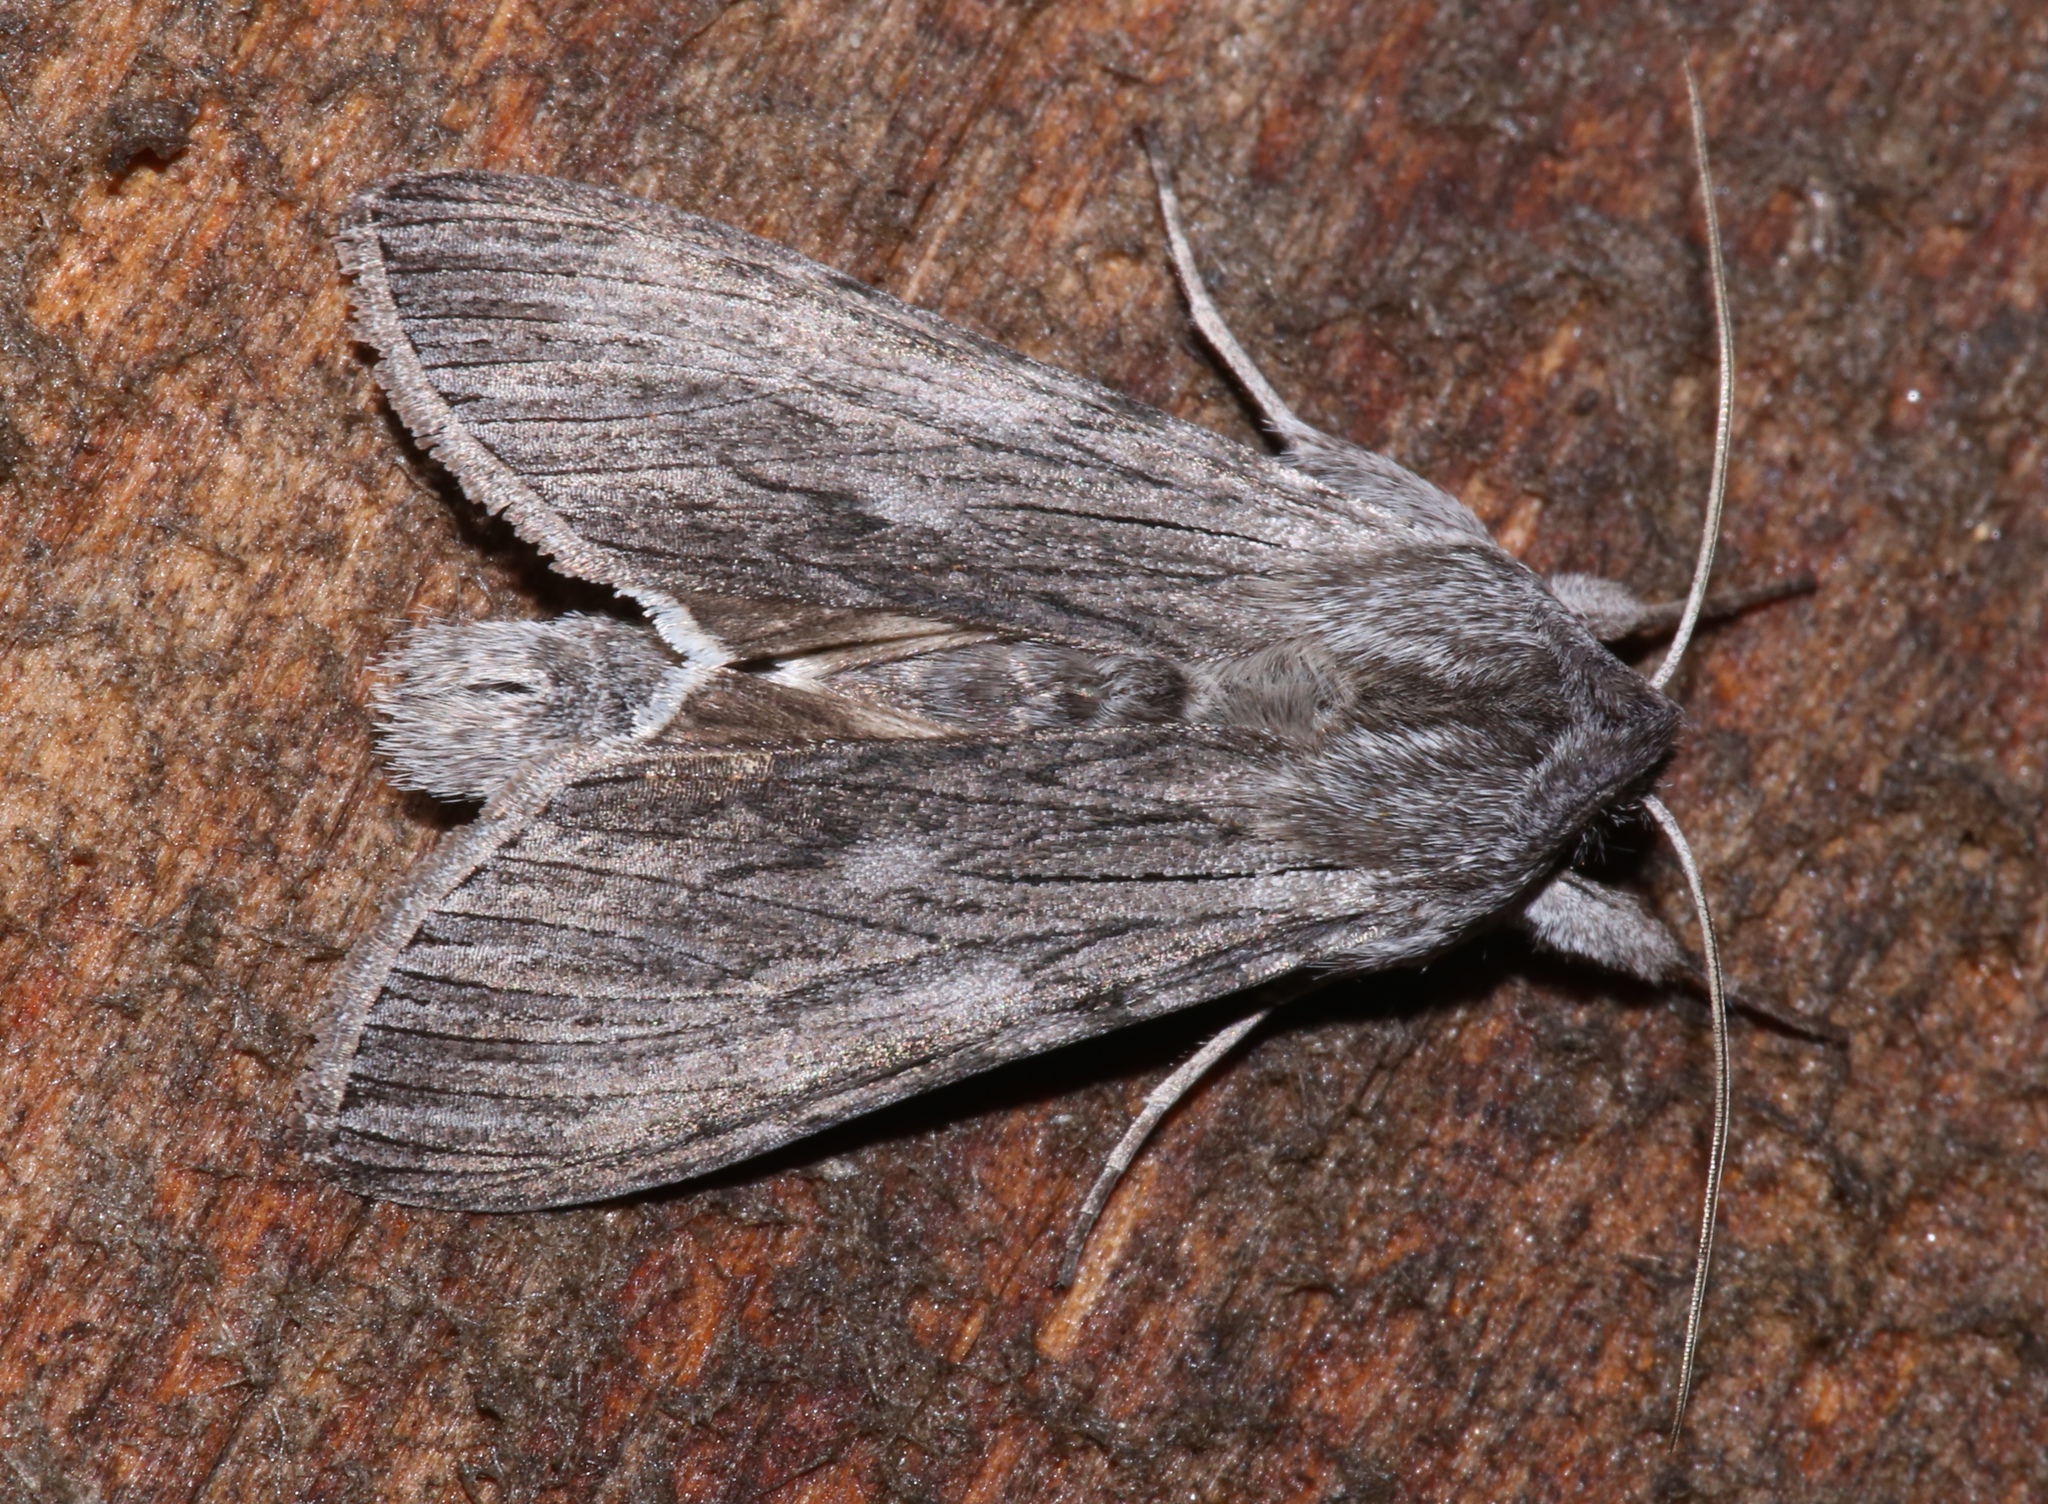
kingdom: Animalia
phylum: Arthropoda
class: Insecta
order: Lepidoptera
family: Noctuidae
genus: Cucullia
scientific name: Cucullia intermedia
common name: Goldenrod cutworm
